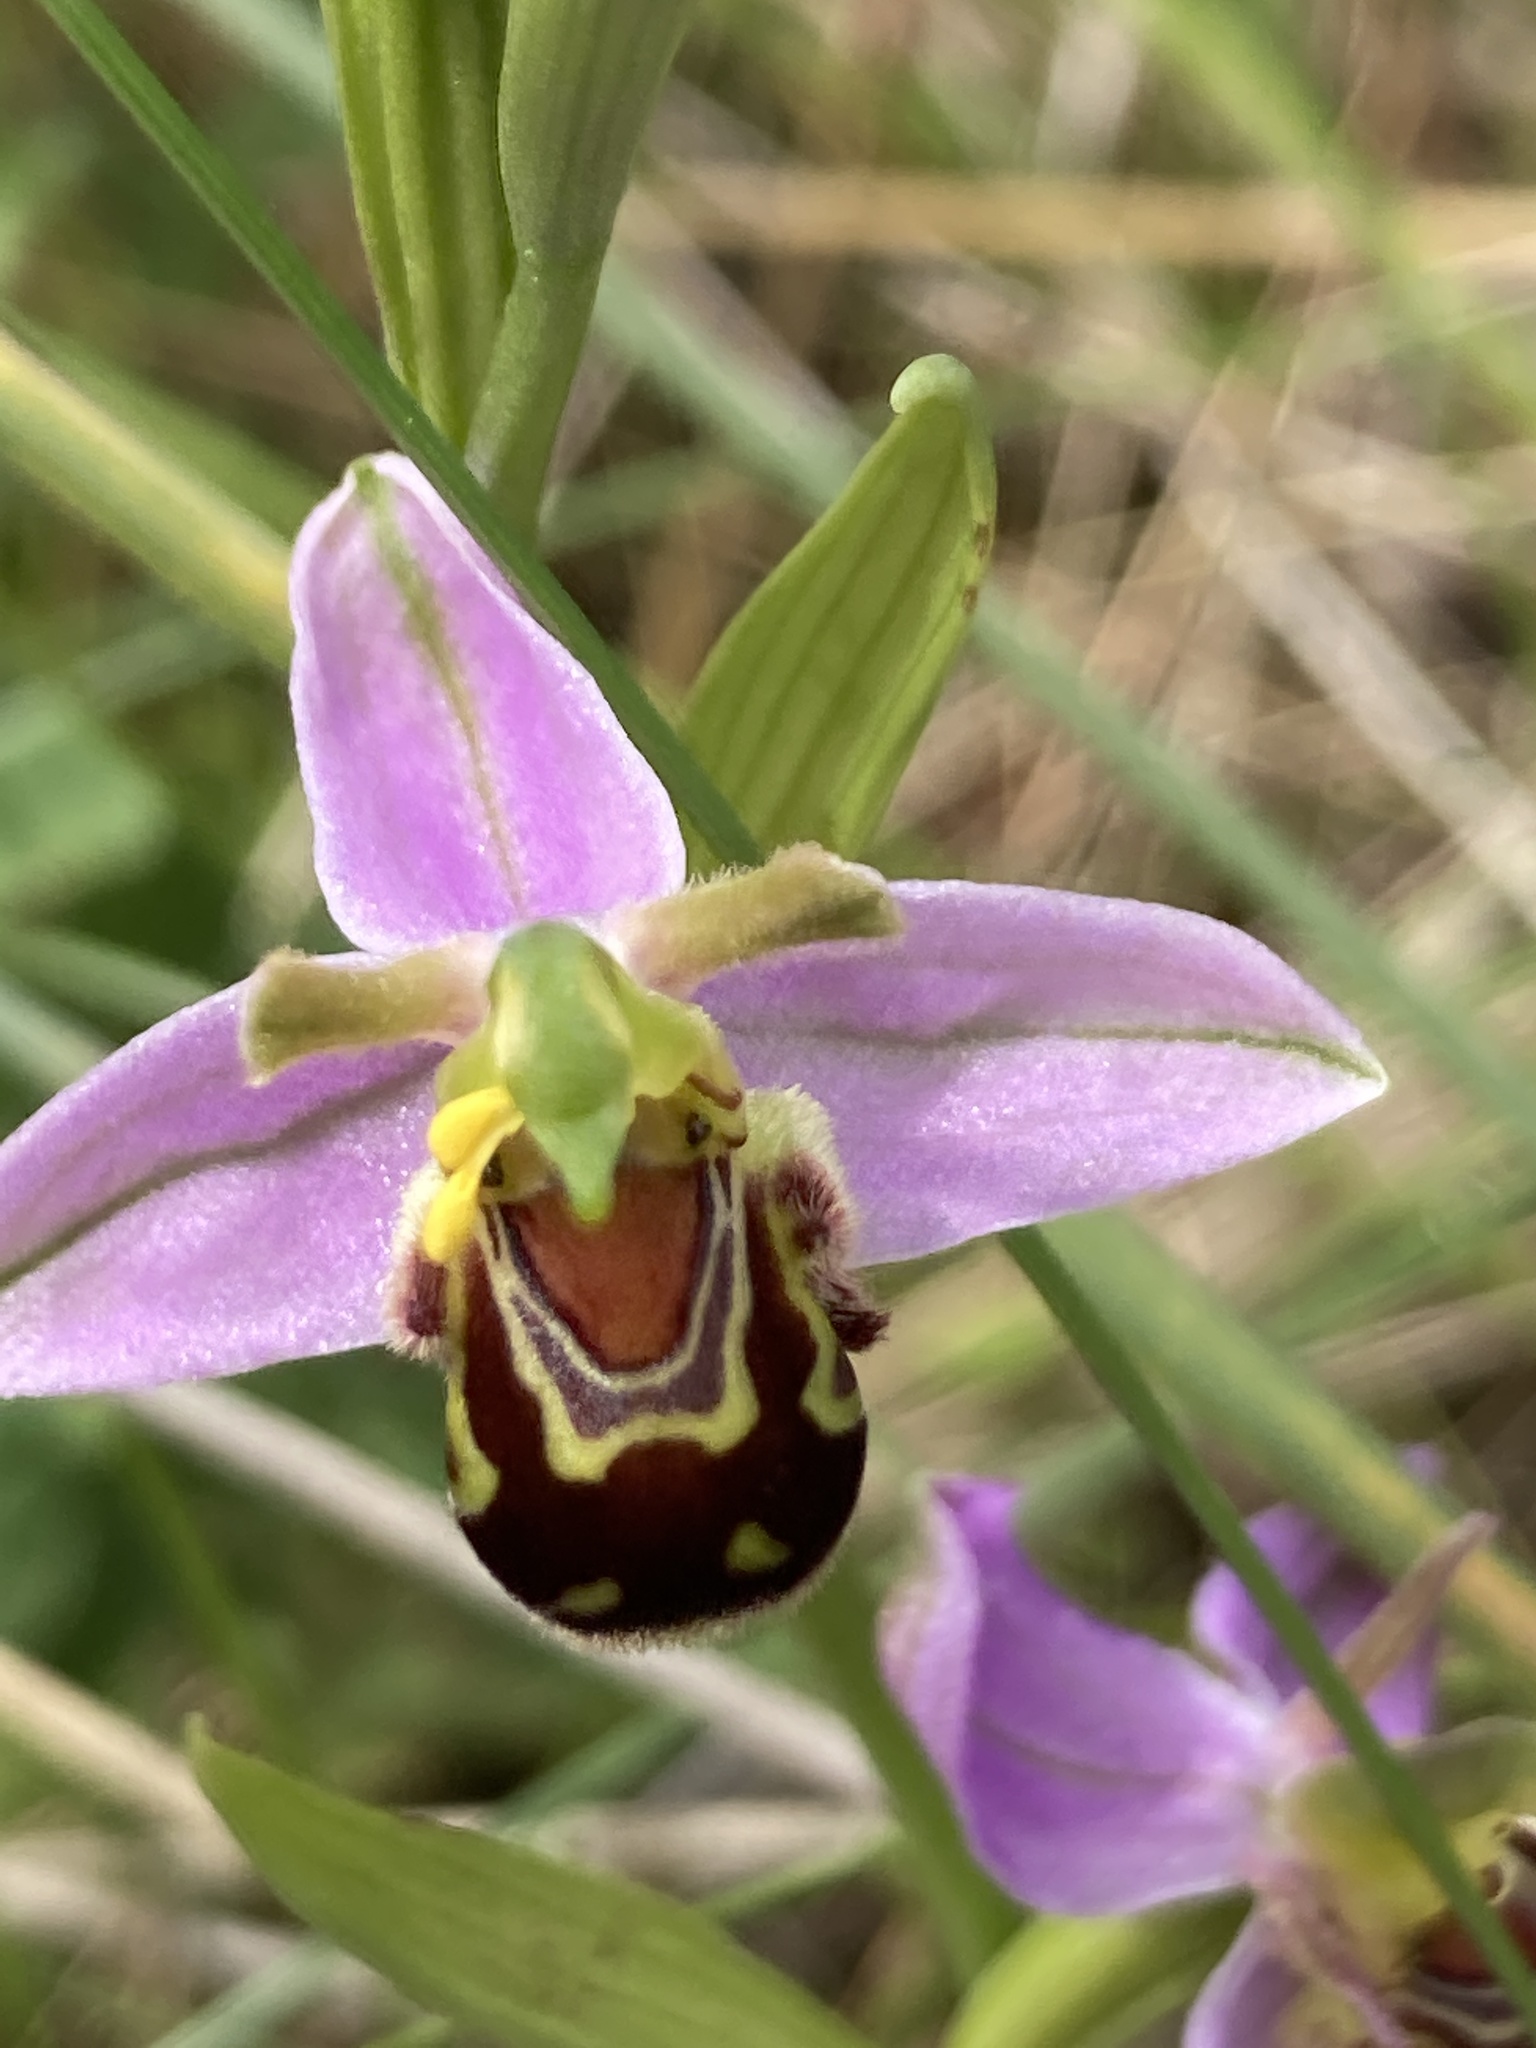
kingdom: Plantae
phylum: Tracheophyta
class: Liliopsida
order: Asparagales
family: Orchidaceae
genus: Ophrys
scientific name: Ophrys apifera
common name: Bee orchid
